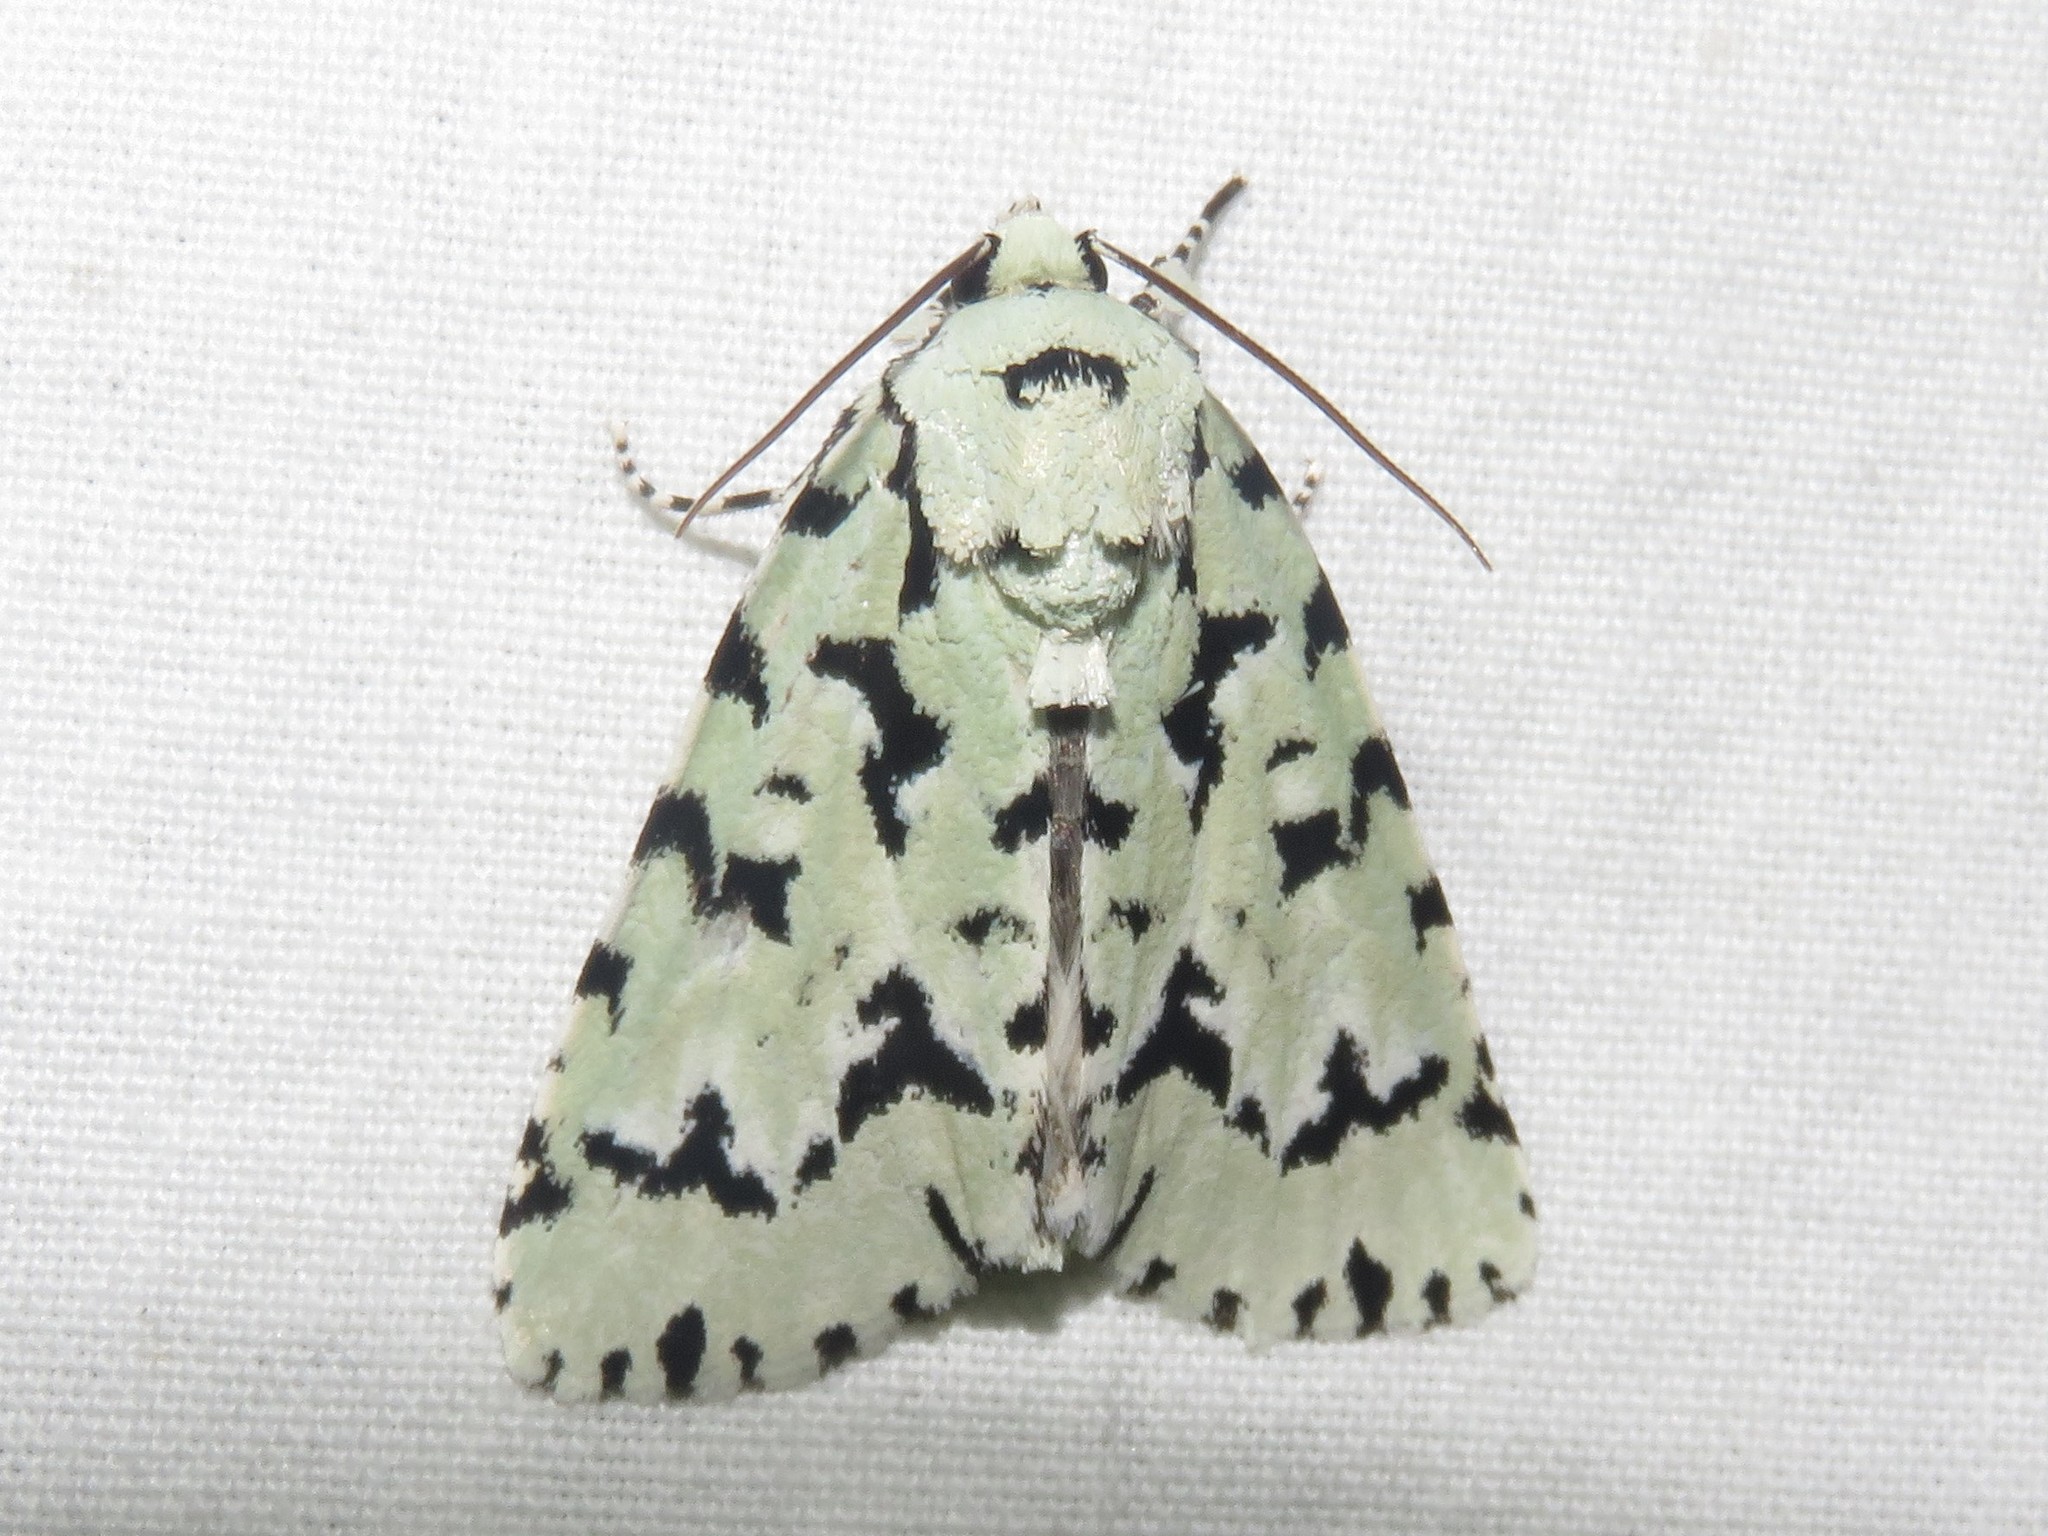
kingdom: Animalia
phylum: Arthropoda
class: Insecta
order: Lepidoptera
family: Noctuidae
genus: Acronicta
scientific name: Acronicta fallax
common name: Green marvel
